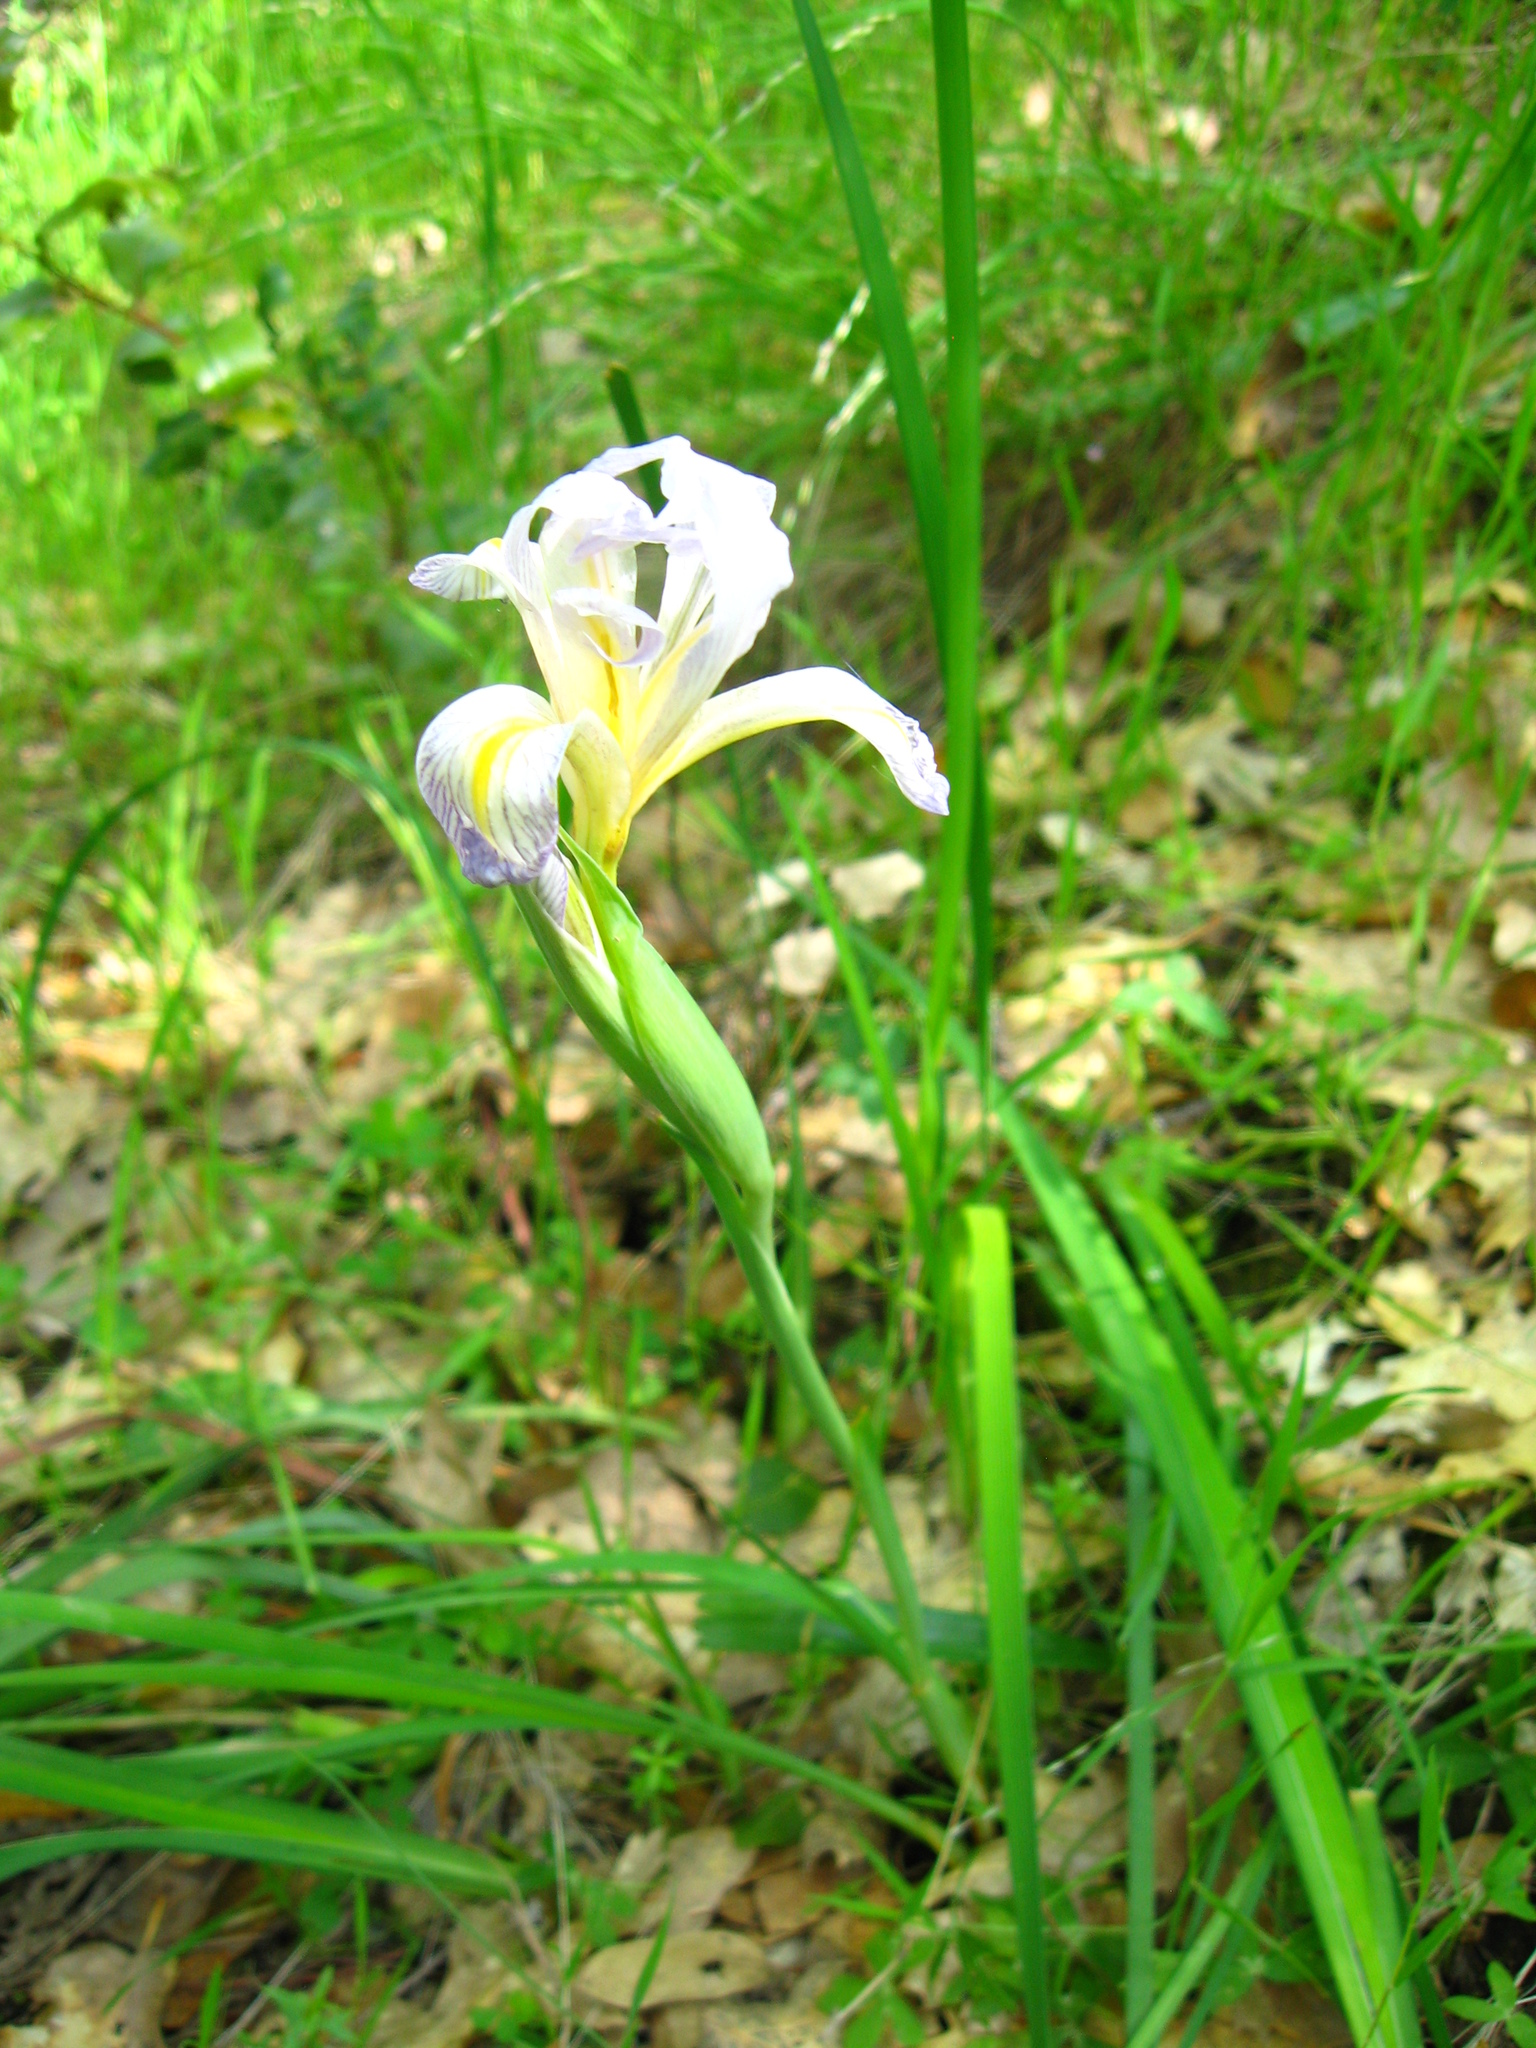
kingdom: Plantae
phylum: Tracheophyta
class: Liliopsida
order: Asparagales
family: Iridaceae
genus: Iris
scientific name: Iris macrosiphon
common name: Ground iris
